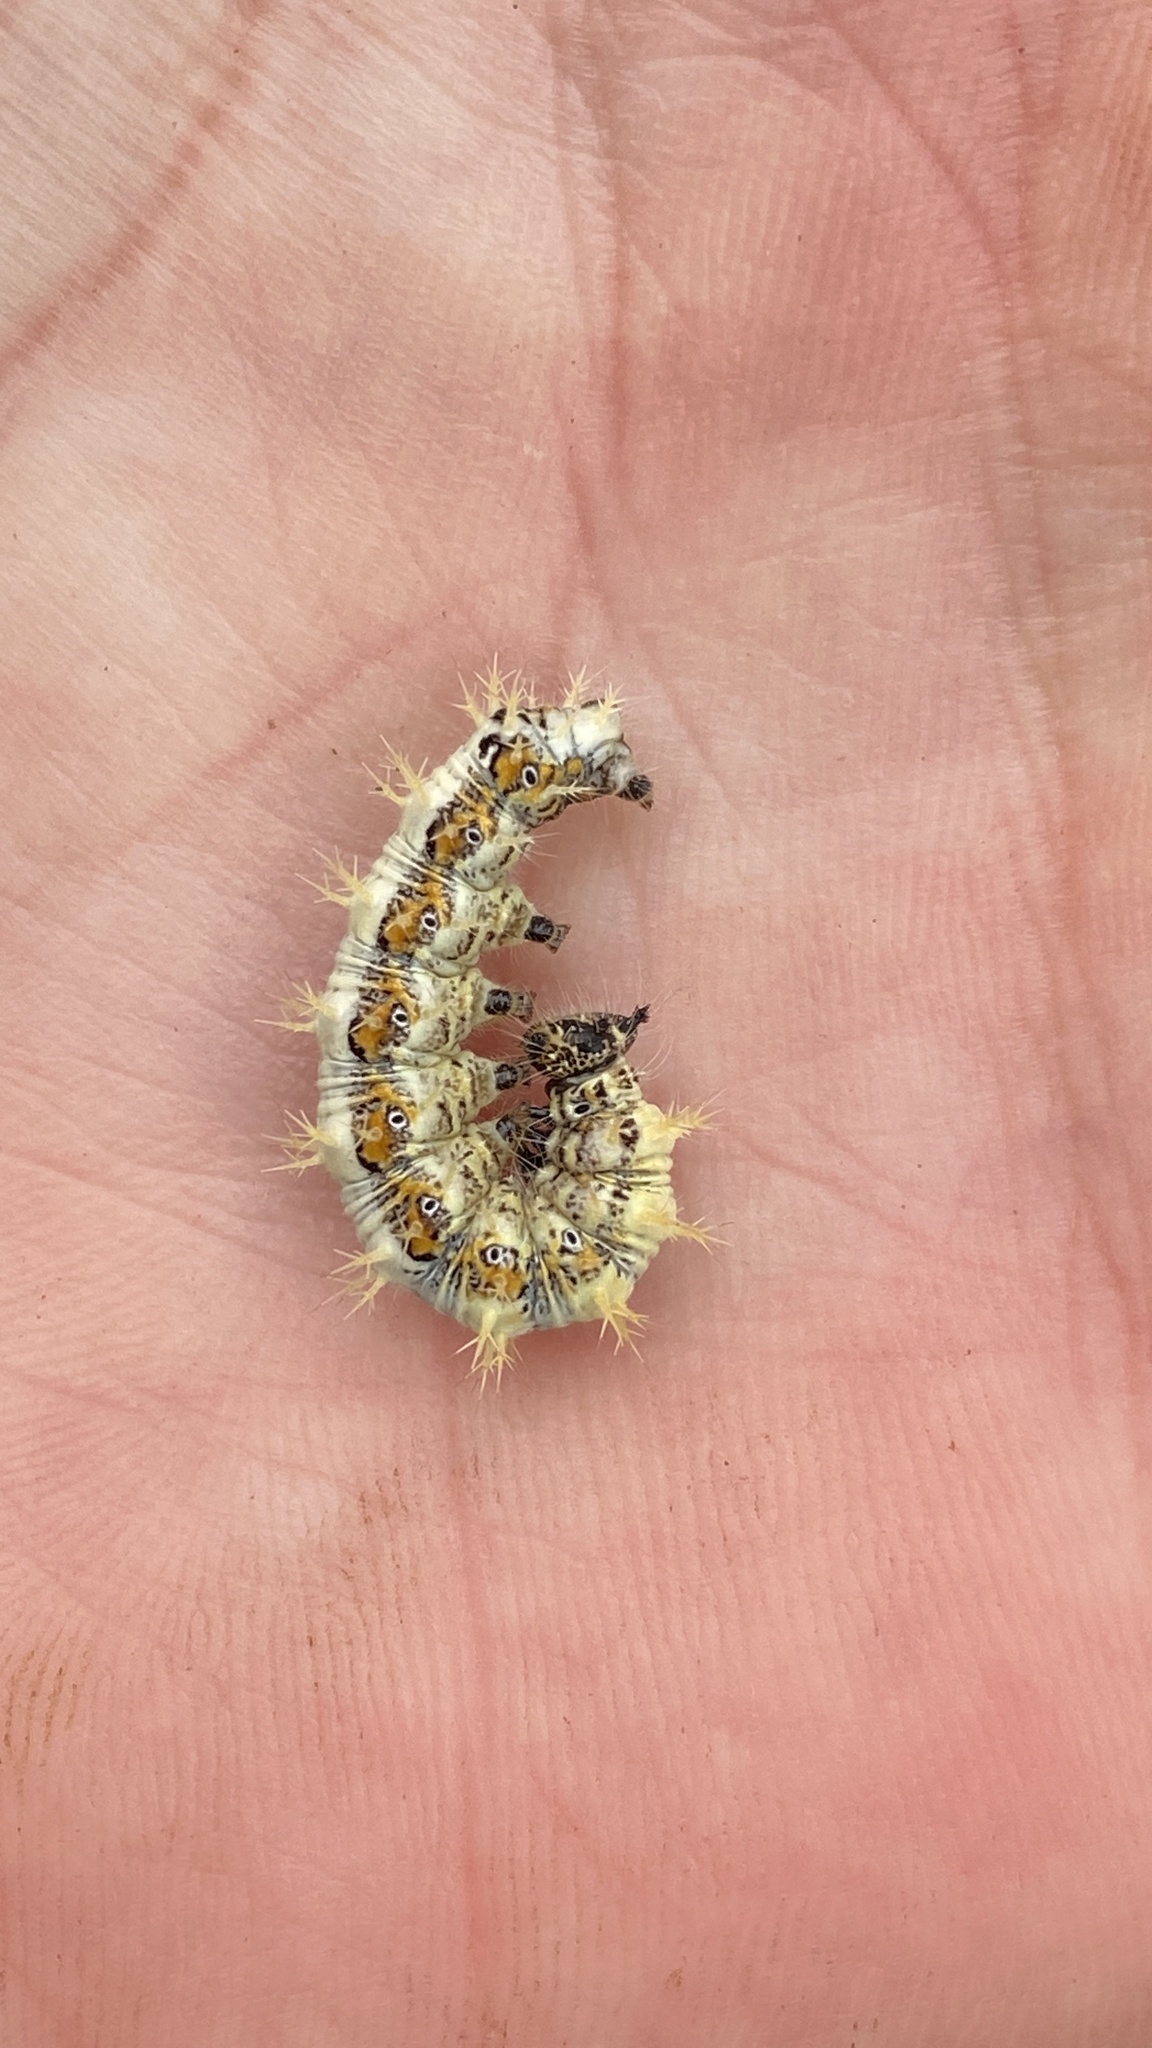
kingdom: Animalia
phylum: Arthropoda
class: Insecta
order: Lepidoptera
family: Nymphalidae
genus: Polygonia
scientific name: Polygonia c-album
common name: Comma
